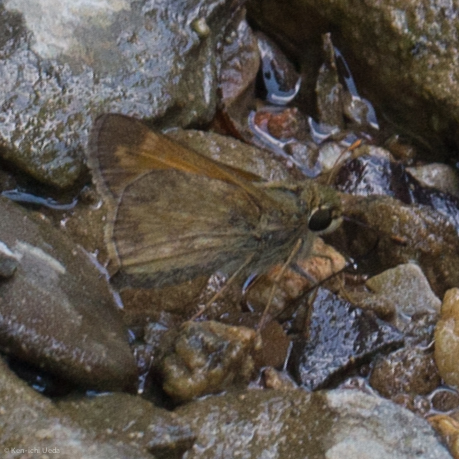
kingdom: Animalia
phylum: Arthropoda
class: Insecta
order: Lepidoptera
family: Hesperiidae
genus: Atalopedes
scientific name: Atalopedes
